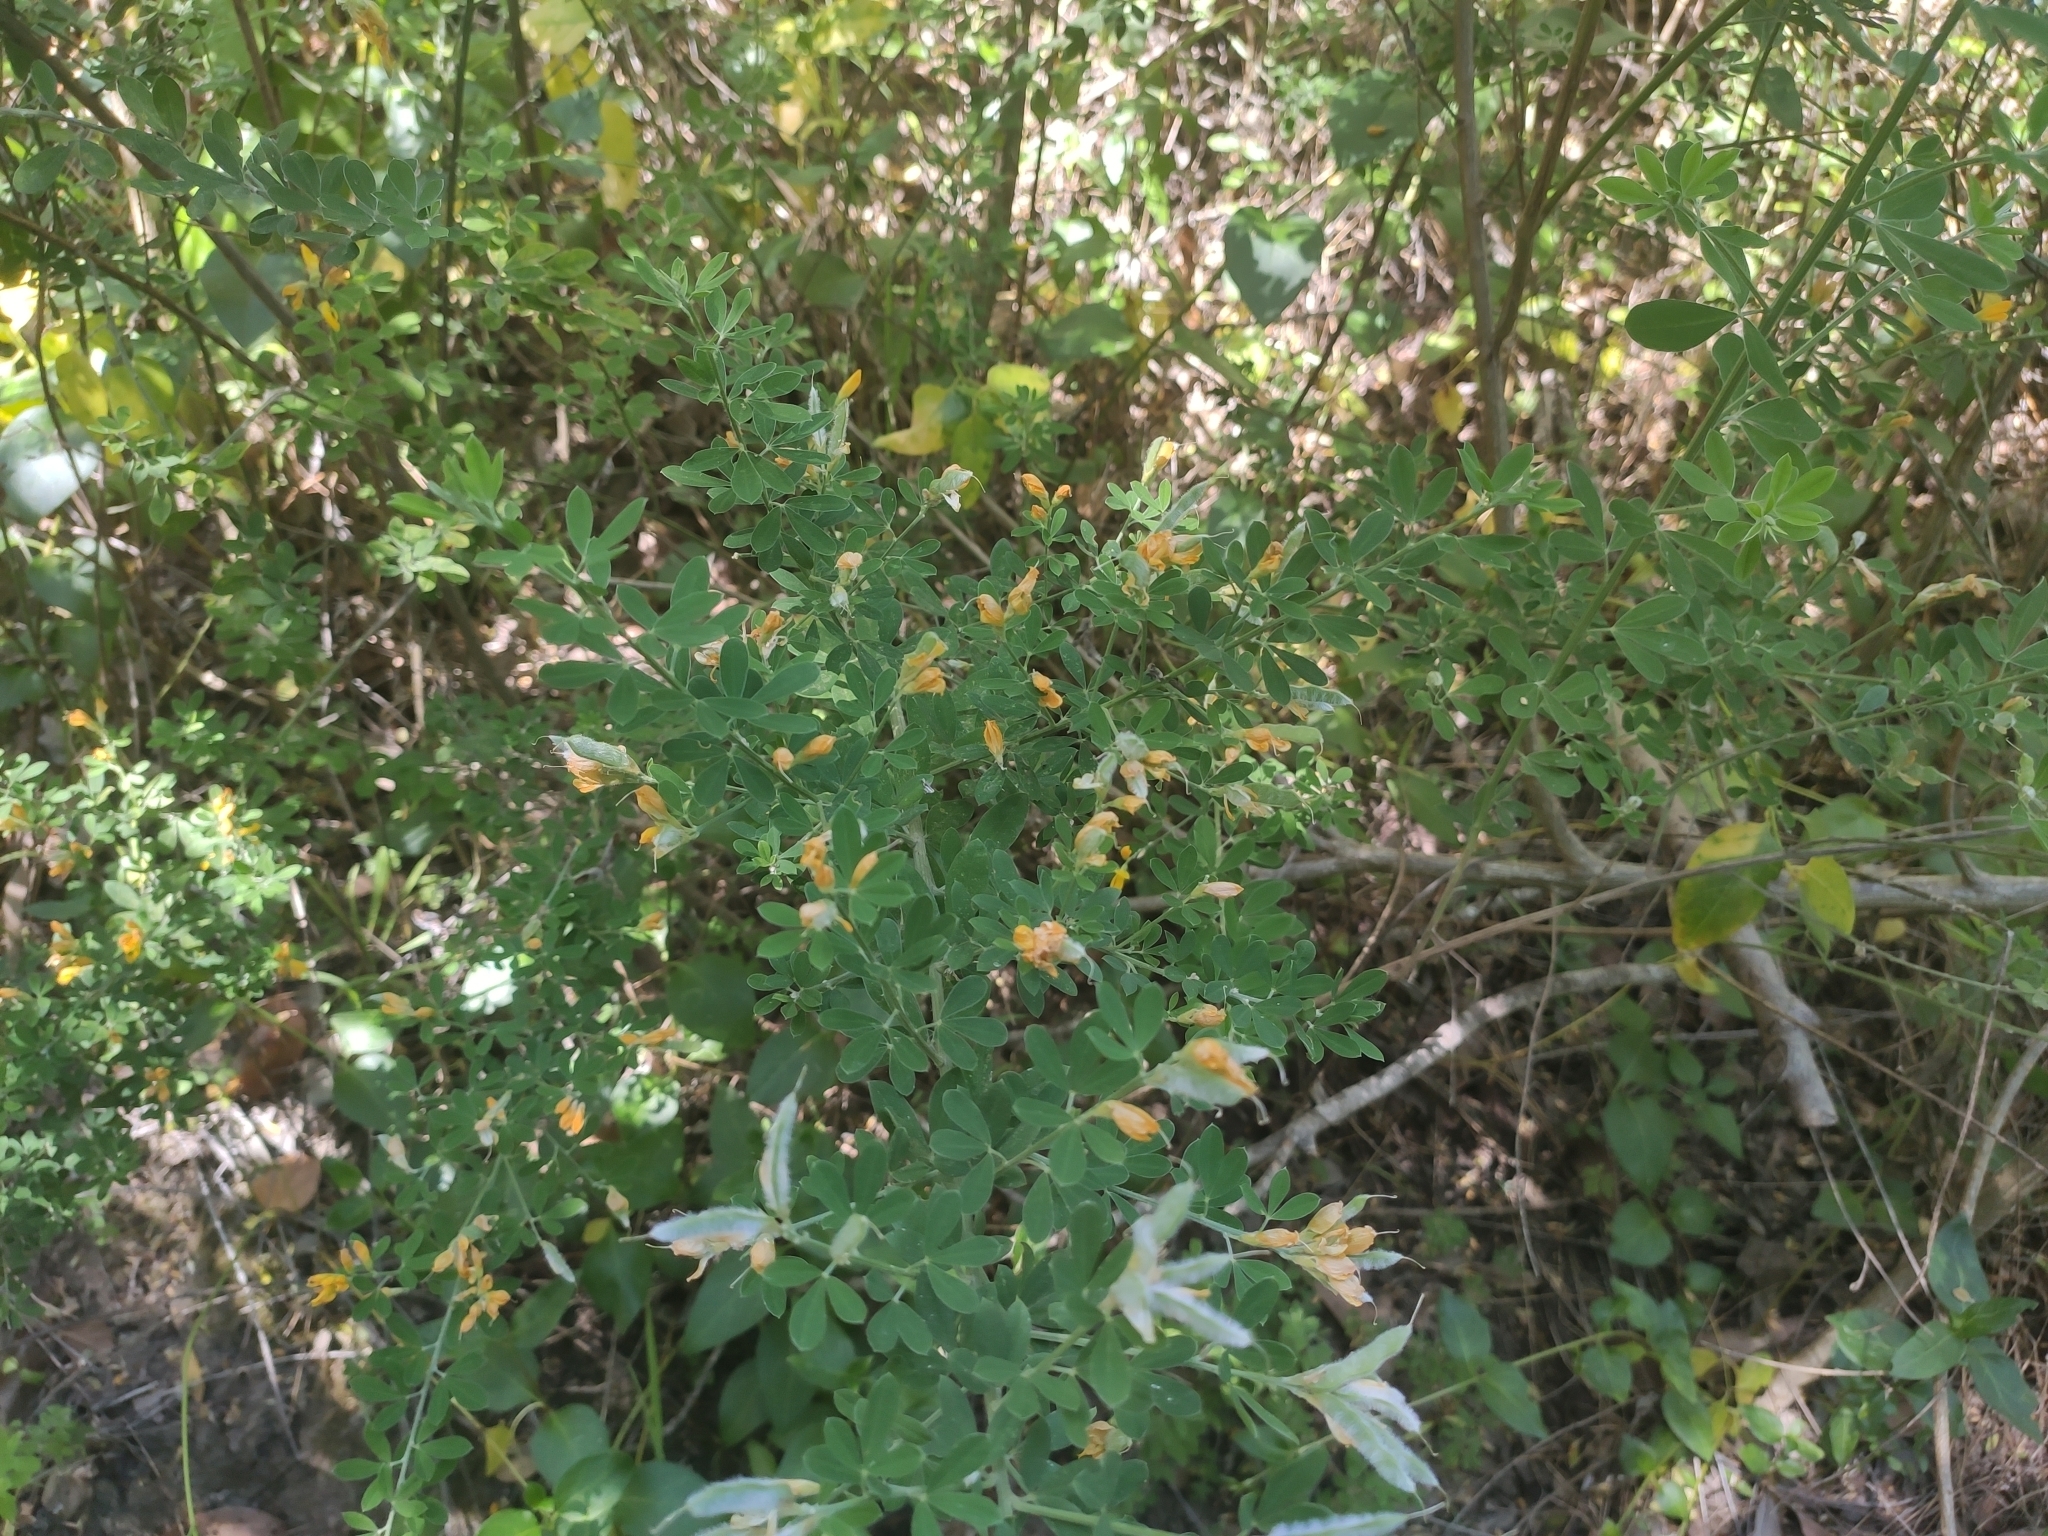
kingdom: Plantae
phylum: Tracheophyta
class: Magnoliopsida
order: Fabales
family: Fabaceae
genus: Genista
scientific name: Genista monspessulana
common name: Montpellier broom
